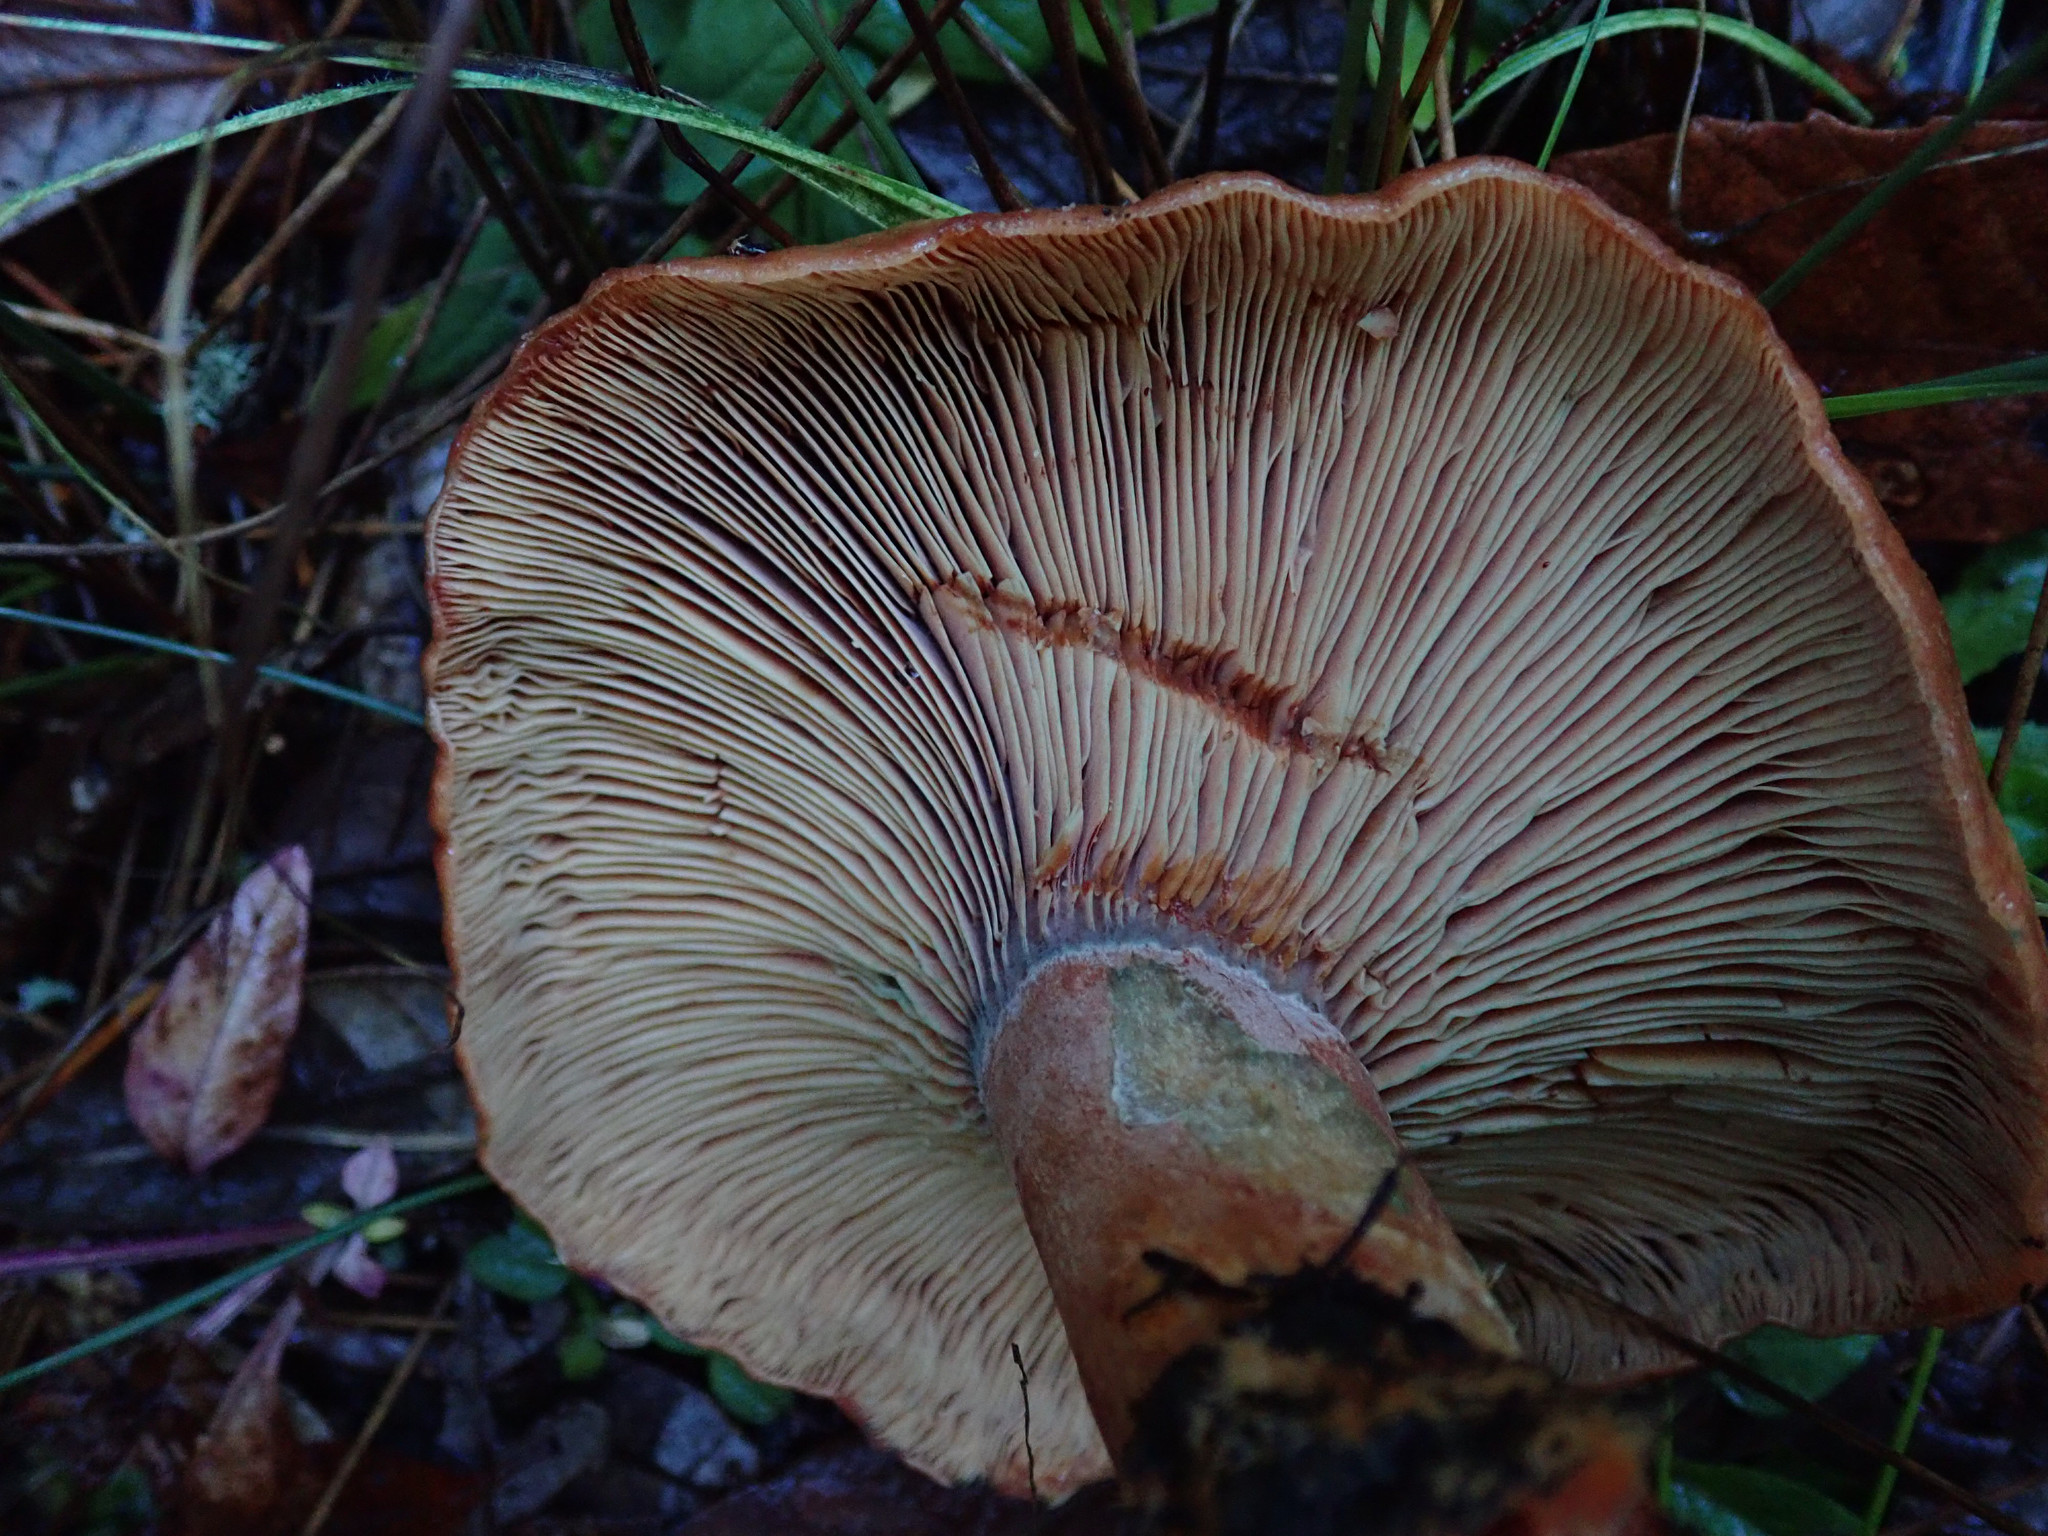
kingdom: Fungi
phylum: Basidiomycota
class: Agaricomycetes
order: Russulales
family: Russulaceae
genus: Lactarius
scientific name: Lactarius rubrilacteus
